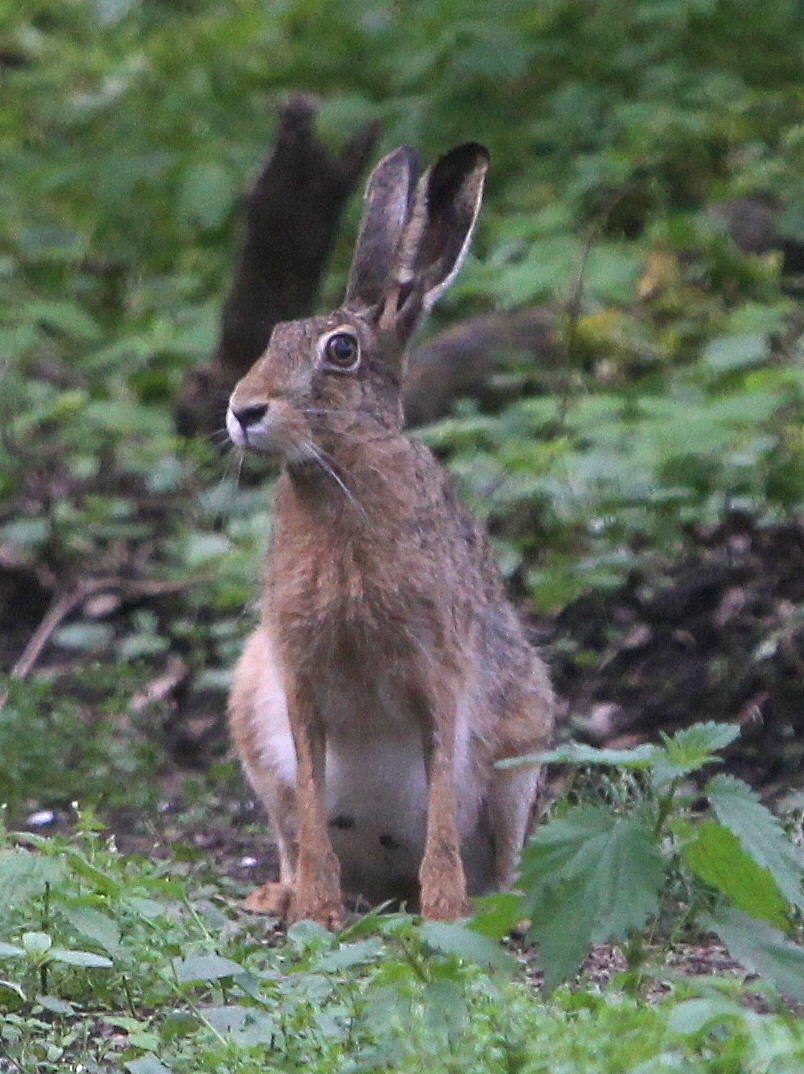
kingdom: Animalia
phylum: Chordata
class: Mammalia
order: Lagomorpha
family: Leporidae
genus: Lepus
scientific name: Lepus europaeus
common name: European hare
